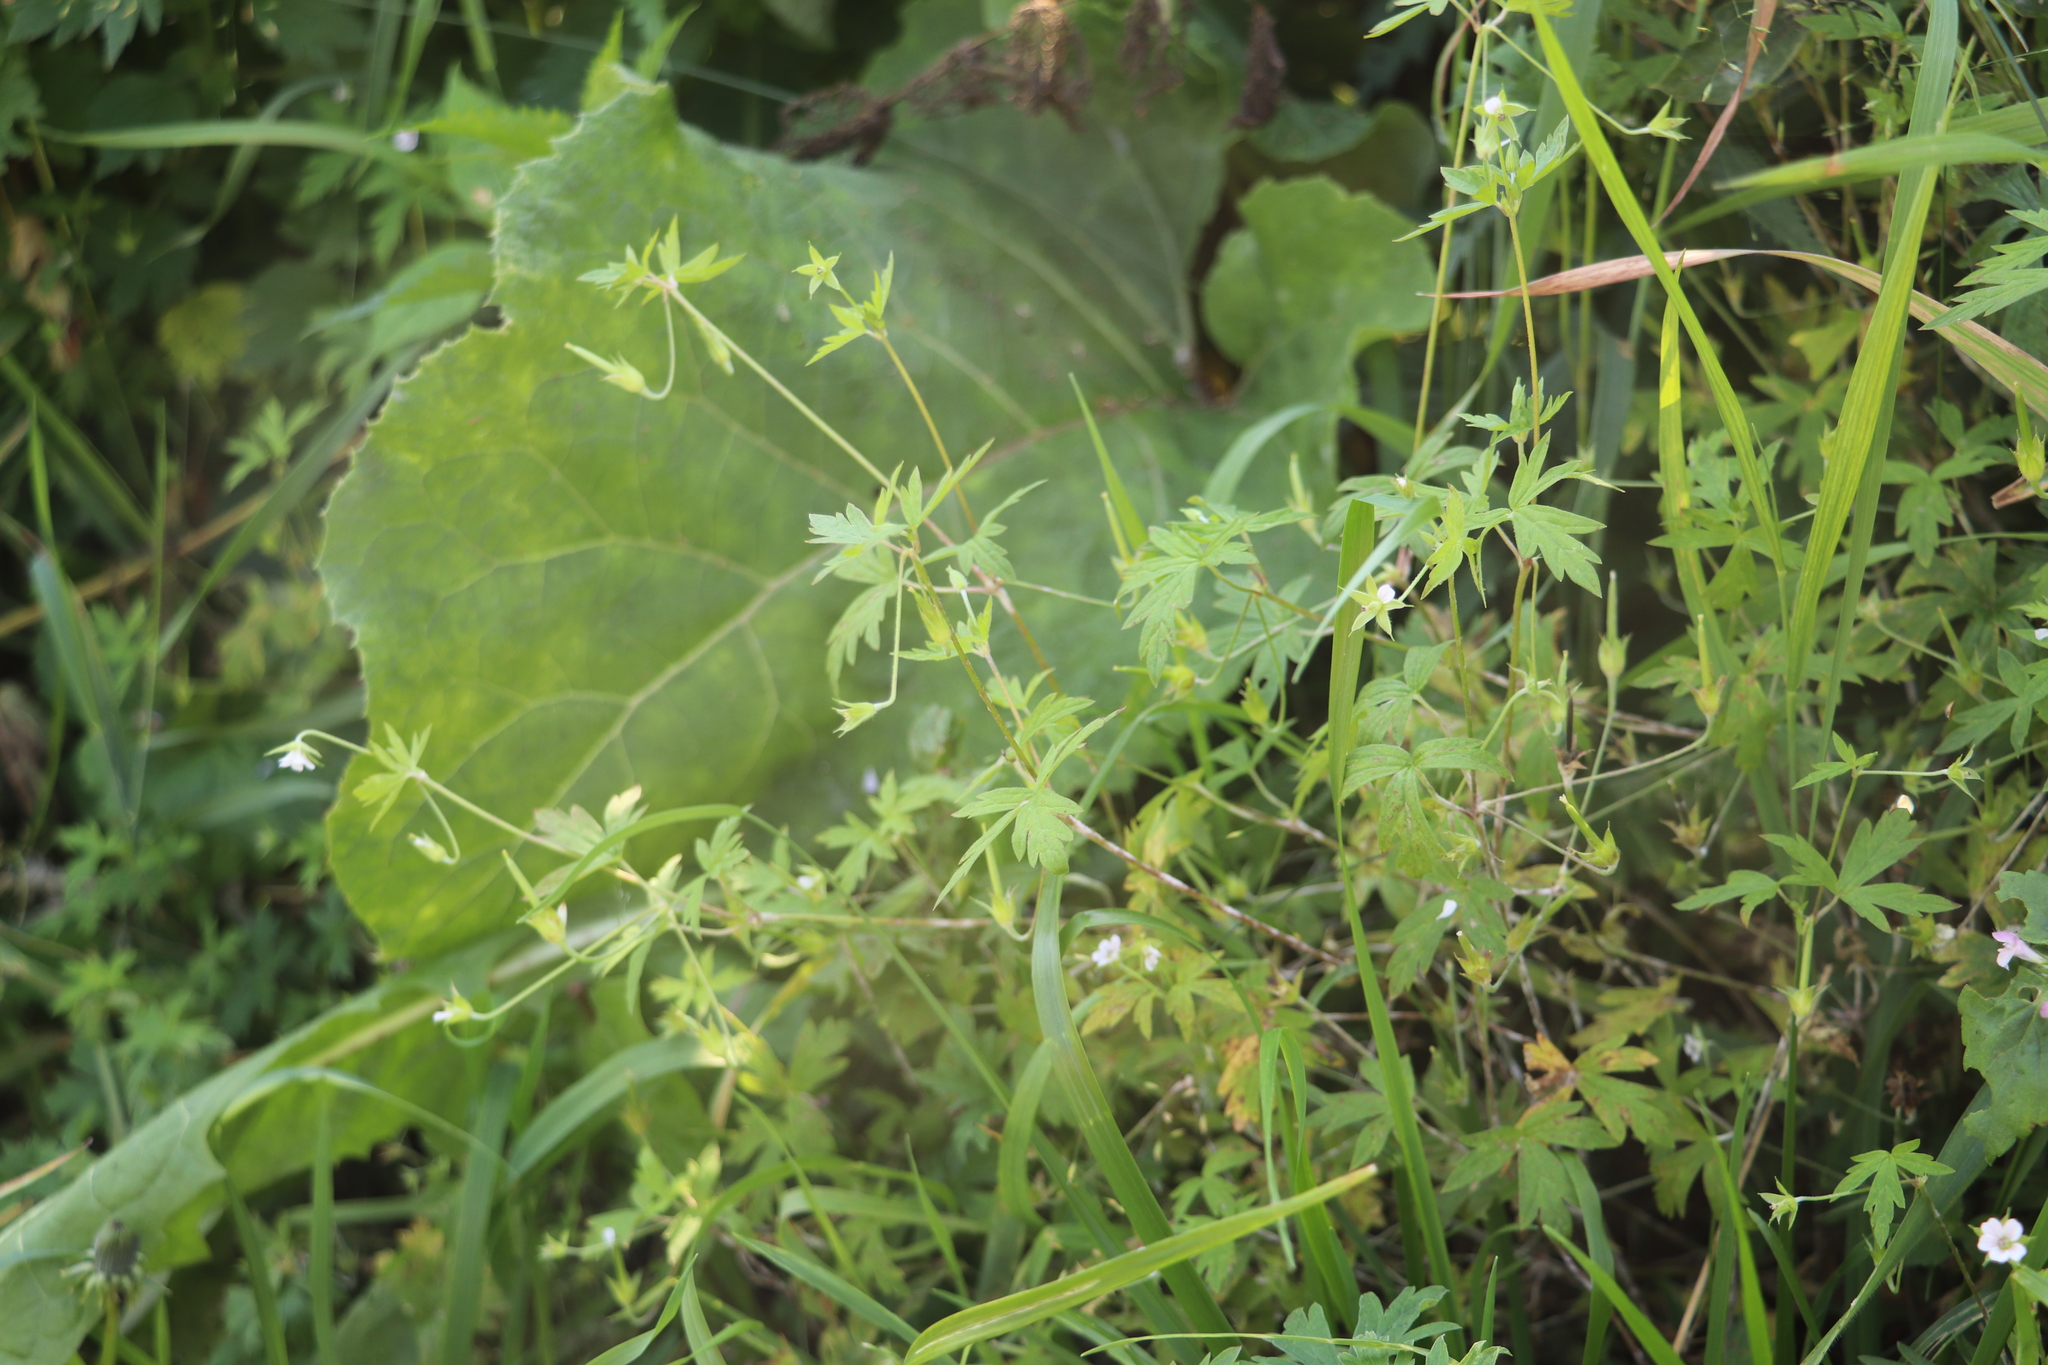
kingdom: Plantae
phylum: Tracheophyta
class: Magnoliopsida
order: Geraniales
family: Geraniaceae
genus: Geranium
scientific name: Geranium sibiricum
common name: Siberian crane's-bill
